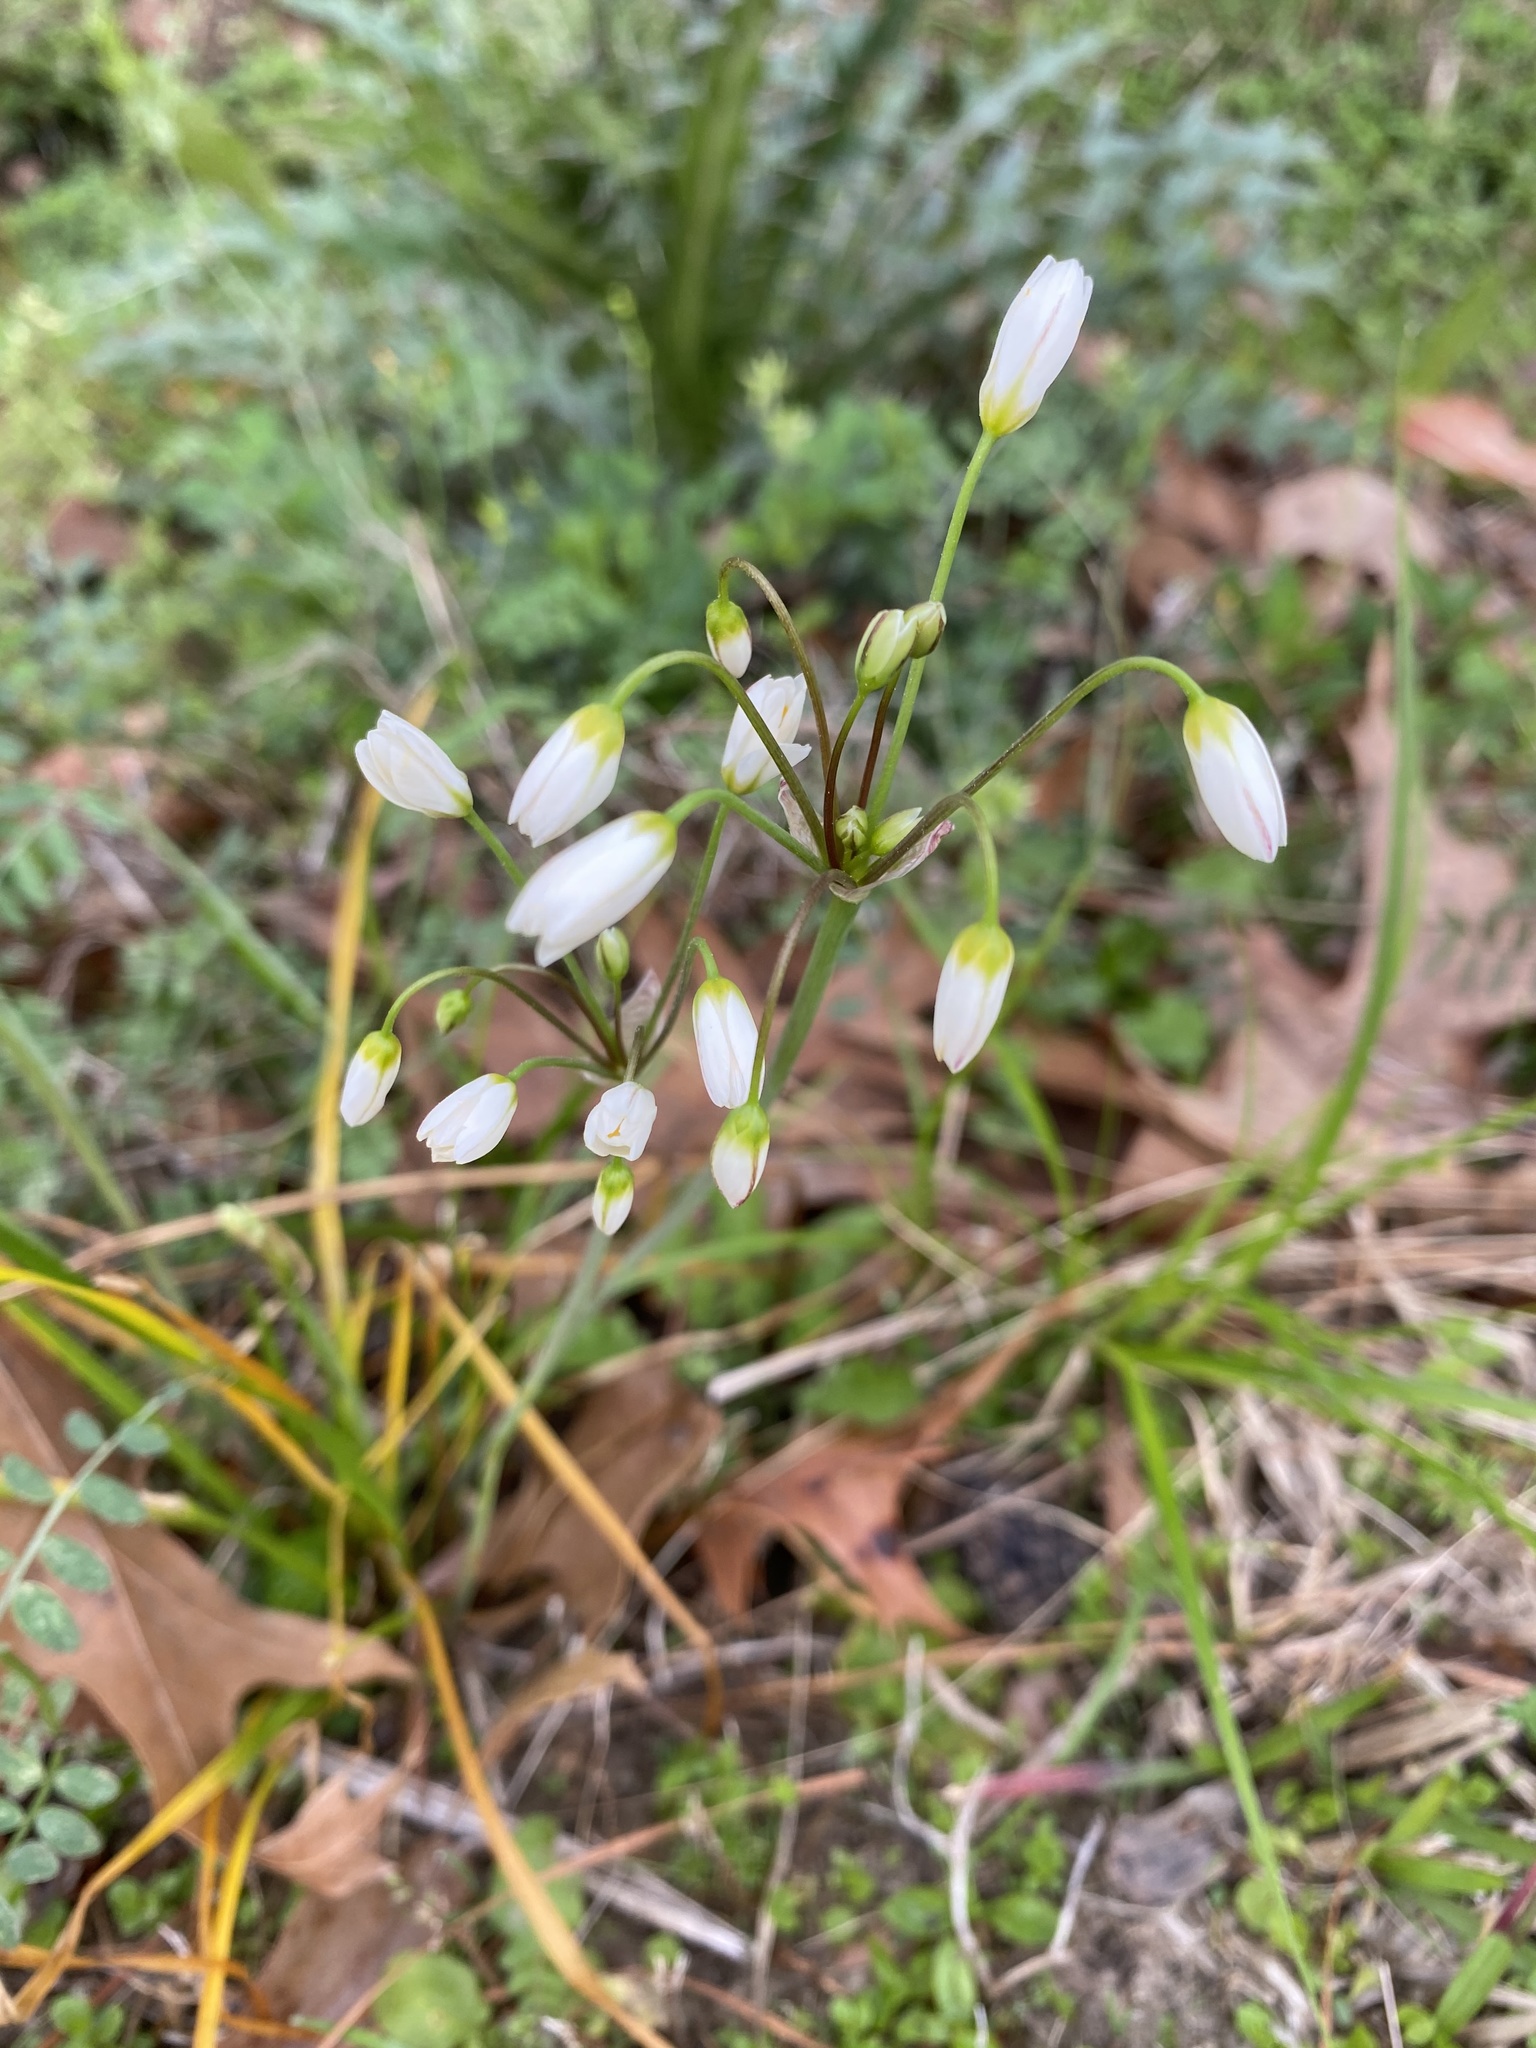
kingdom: Plantae
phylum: Tracheophyta
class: Liliopsida
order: Asparagales
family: Amaryllidaceae
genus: Nothoscordum
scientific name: Nothoscordum bivalve
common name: Crow-poison
